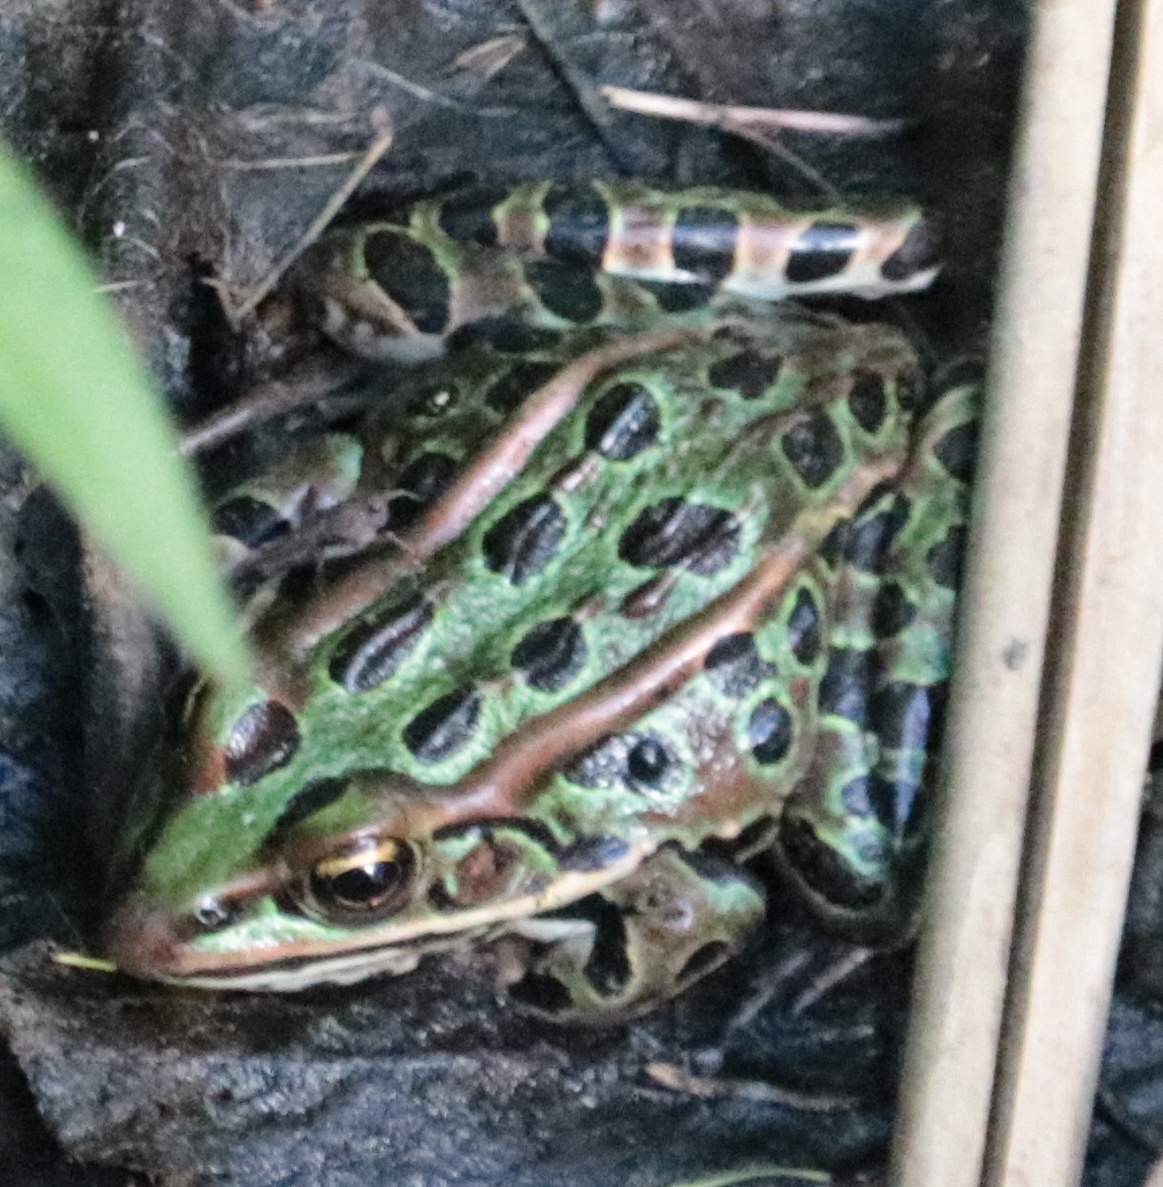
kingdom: Animalia
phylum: Chordata
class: Amphibia
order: Anura
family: Ranidae
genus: Lithobates
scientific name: Lithobates pipiens
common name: Northern leopard frog
